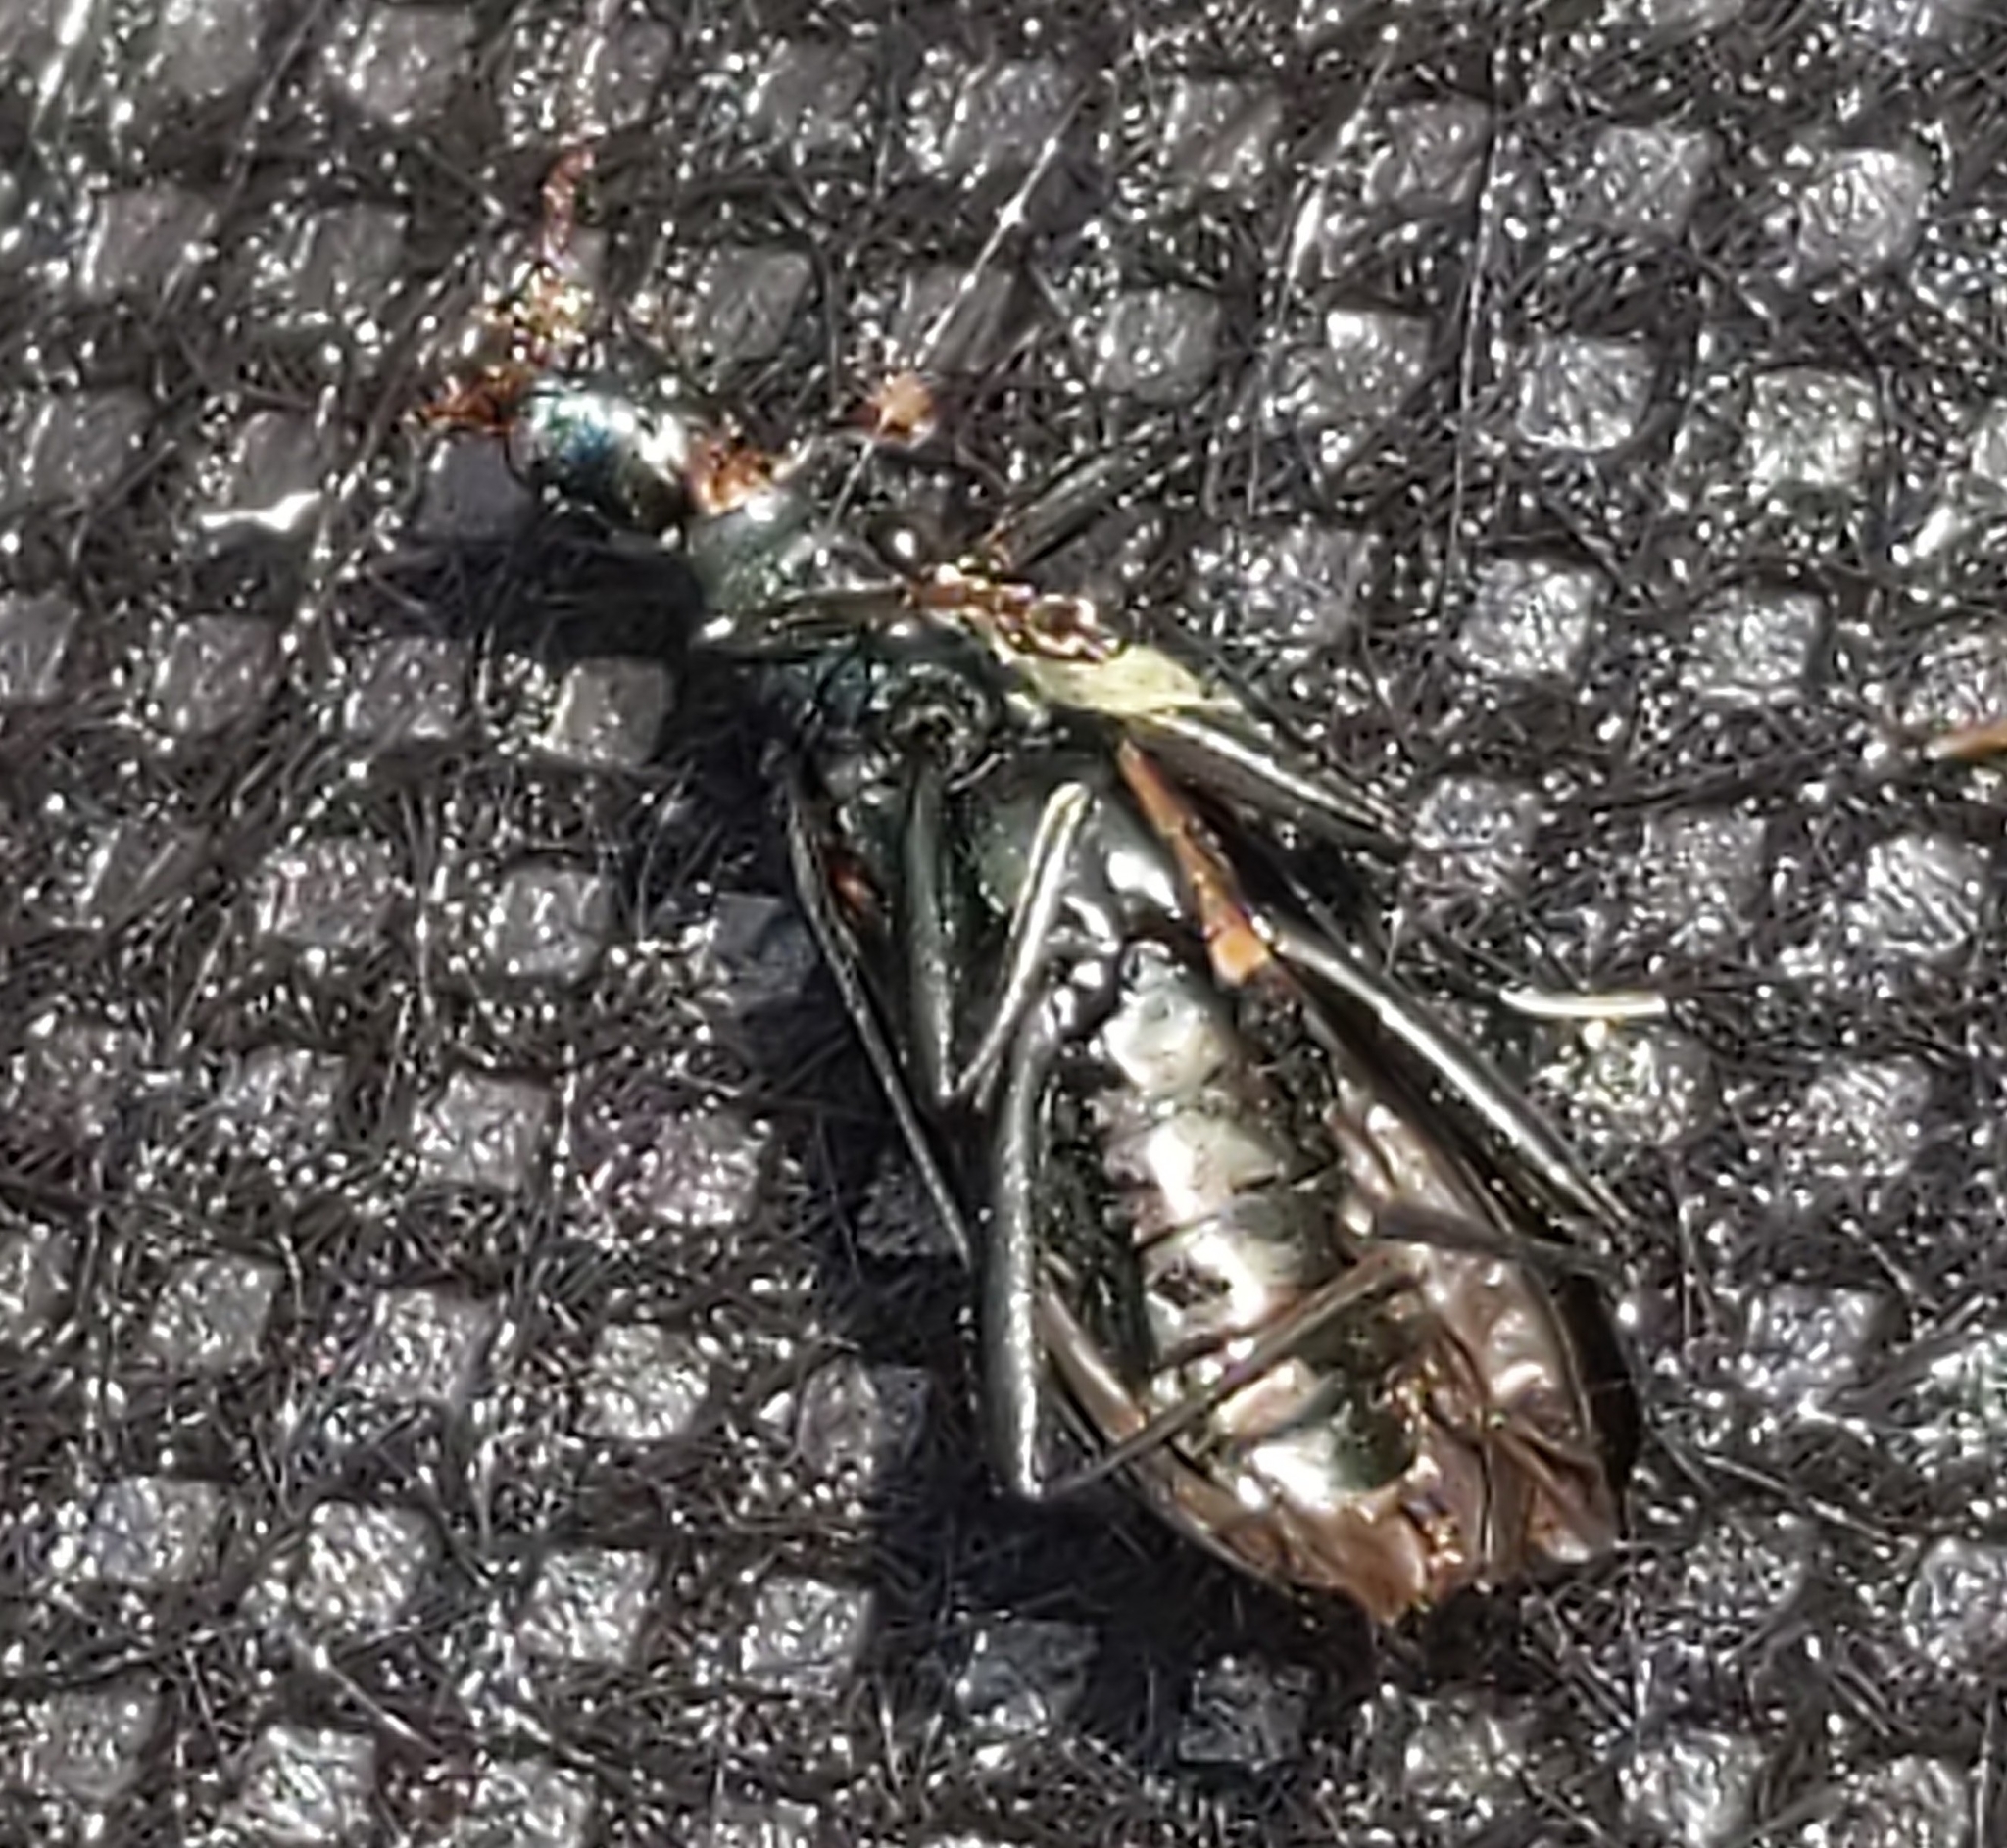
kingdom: Animalia
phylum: Arthropoda
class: Insecta
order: Coleoptera
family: Tenebrionidae
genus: Arthromacra
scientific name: Arthromacra aenea
